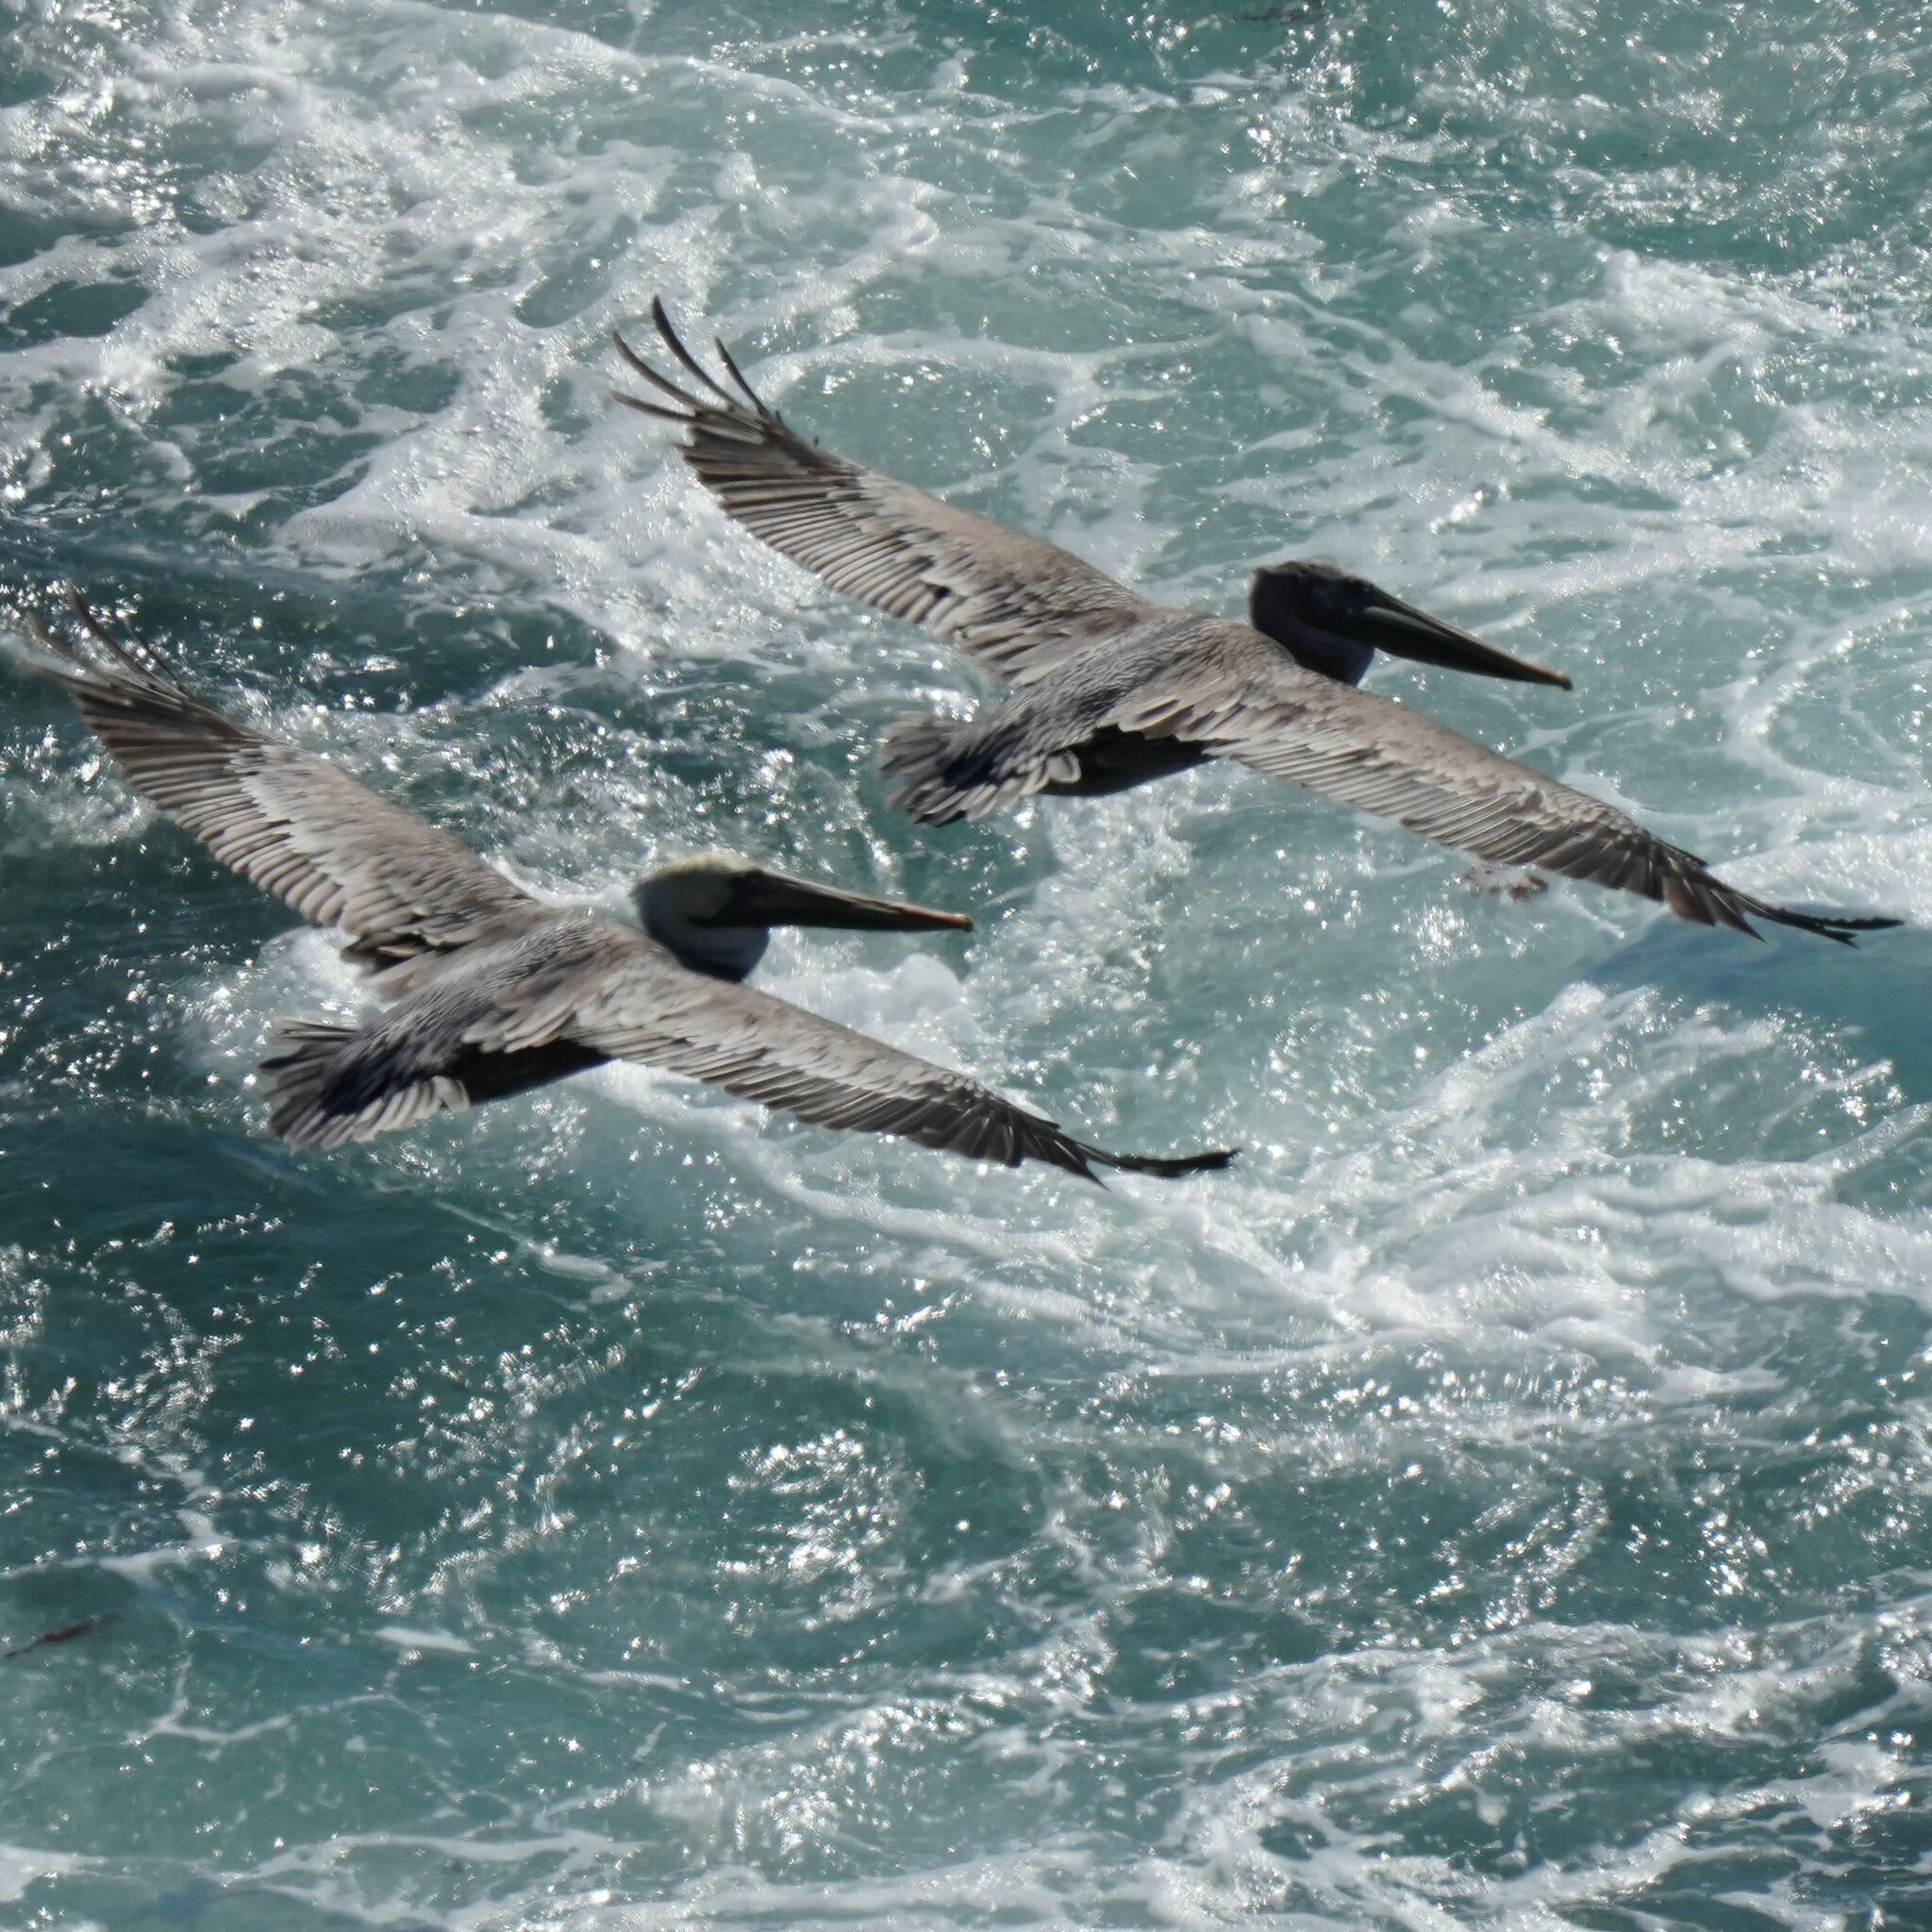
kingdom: Animalia
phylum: Chordata
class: Aves
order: Pelecaniformes
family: Pelecanidae
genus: Pelecanus
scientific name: Pelecanus occidentalis
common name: Brown pelican
